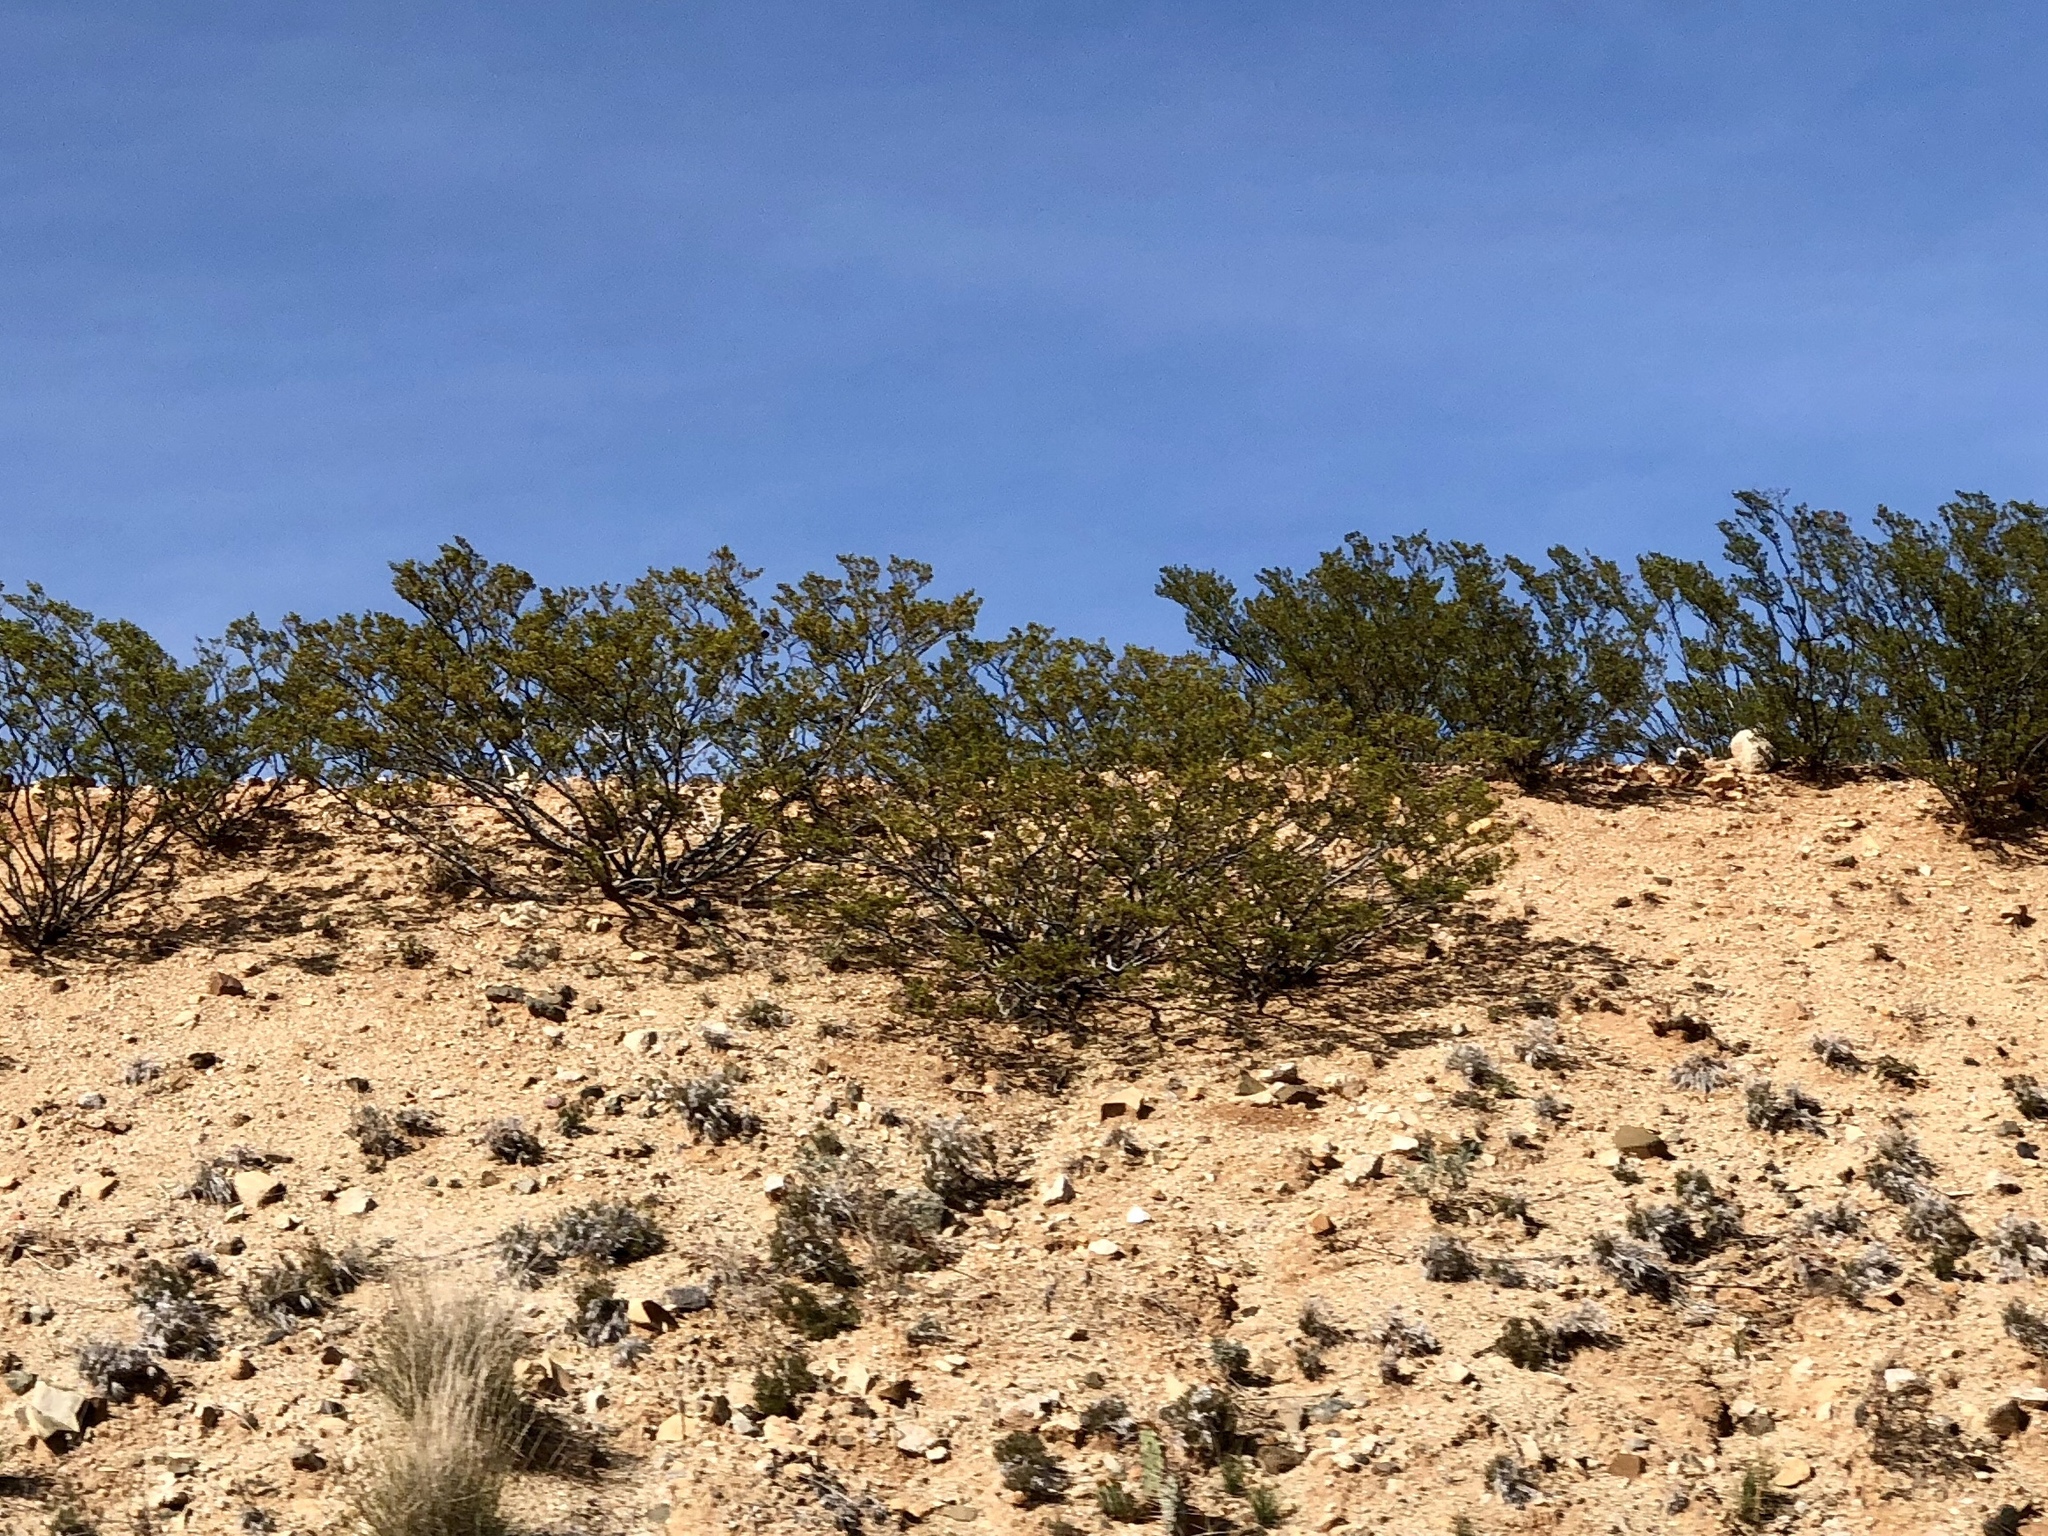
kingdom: Plantae
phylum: Tracheophyta
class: Magnoliopsida
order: Zygophyllales
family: Zygophyllaceae
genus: Larrea
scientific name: Larrea tridentata
